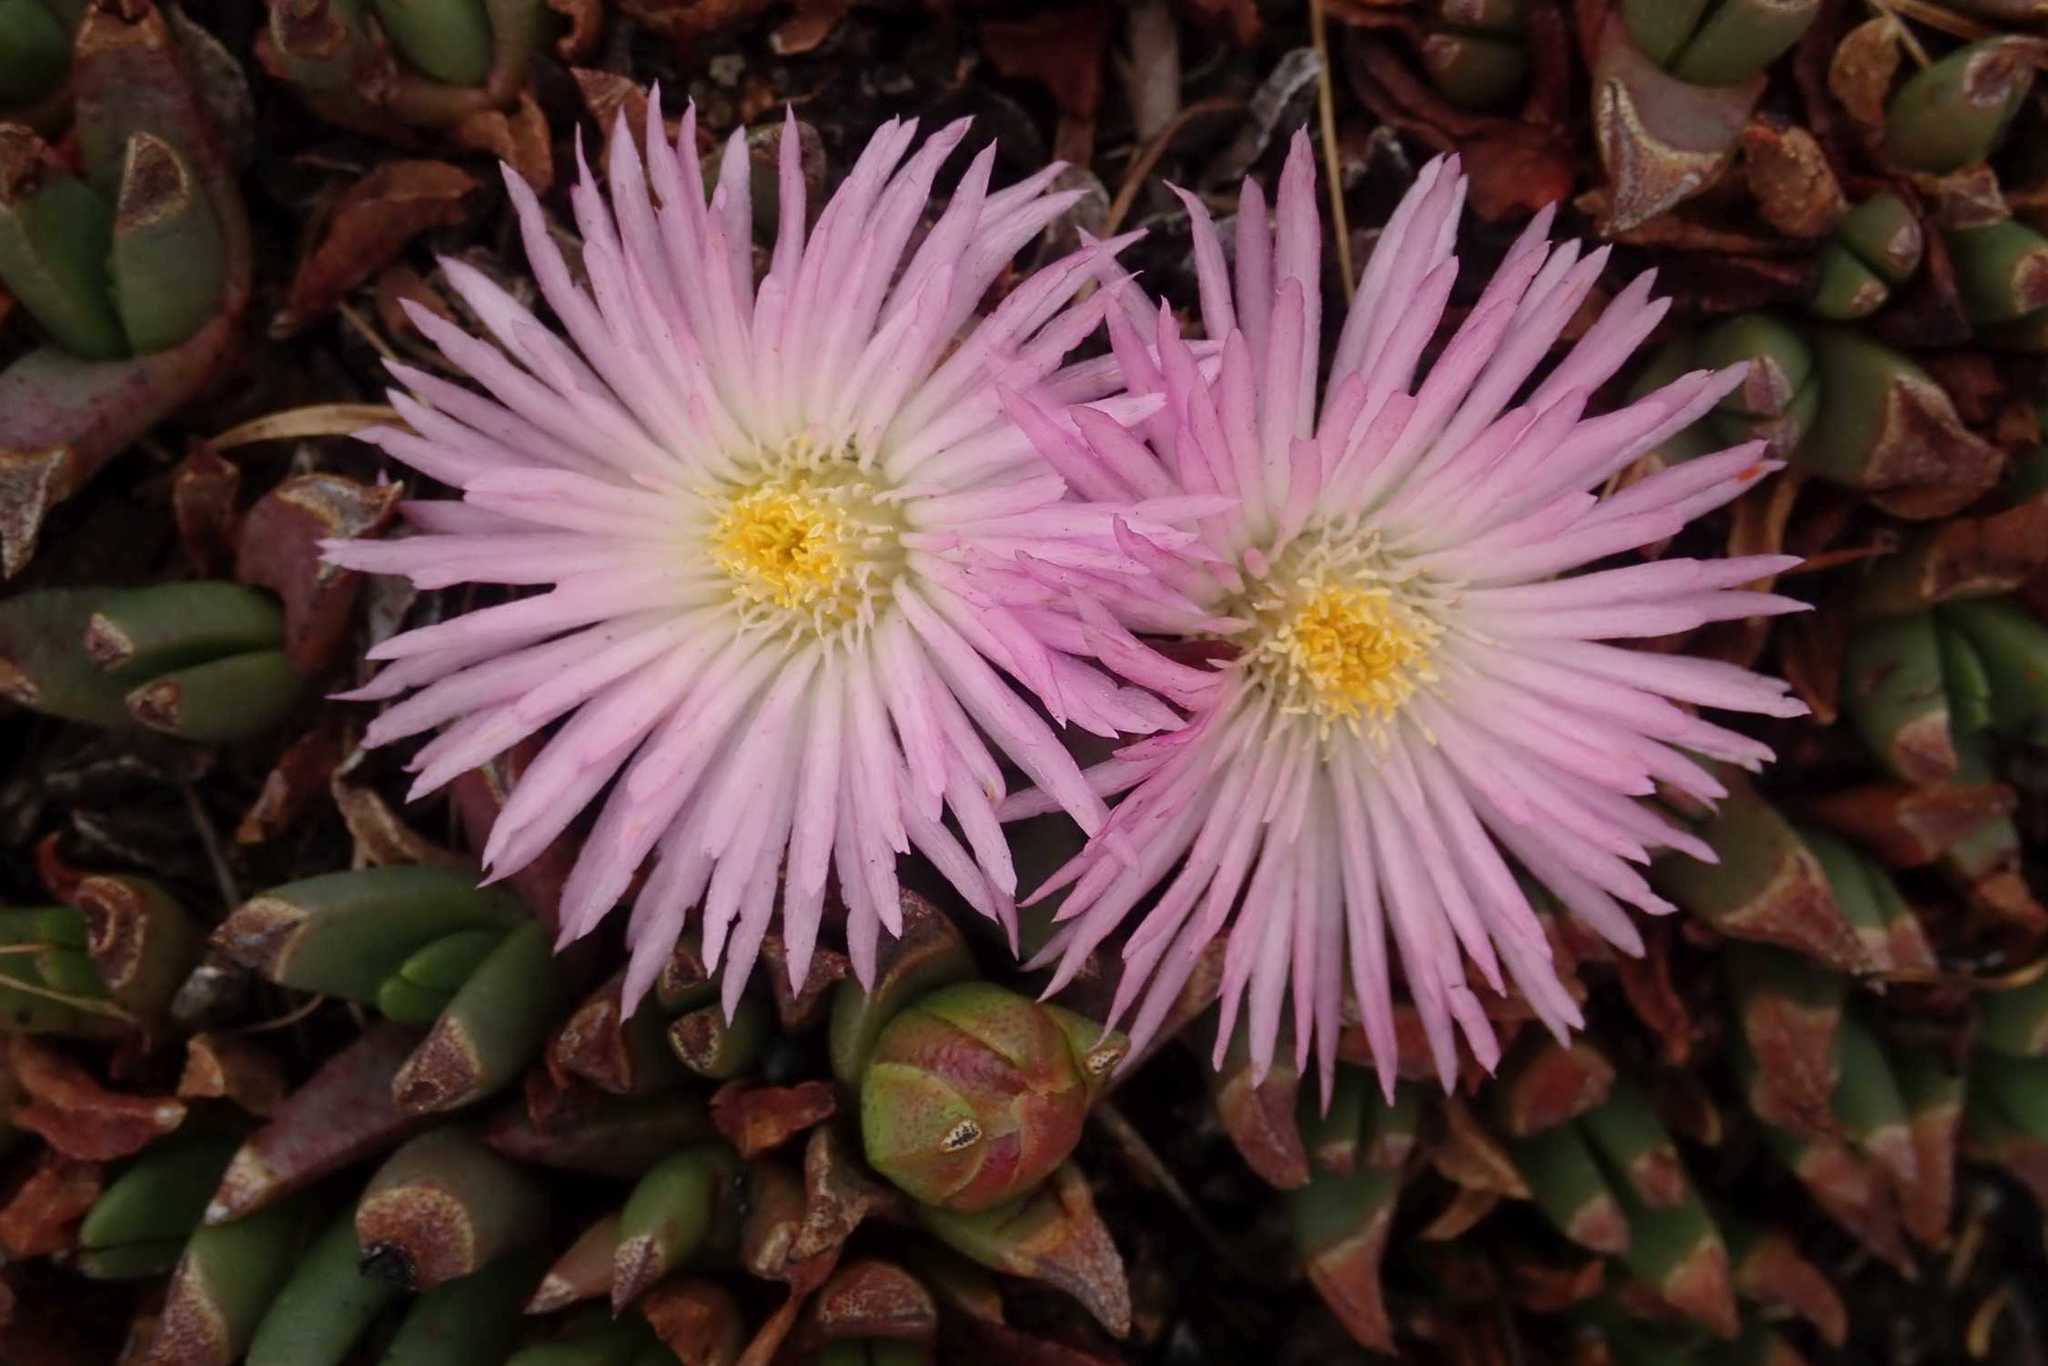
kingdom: Plantae
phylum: Tracheophyta
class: Magnoliopsida
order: Caryophyllales
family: Aizoaceae
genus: Khadia
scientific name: Khadia alticola
